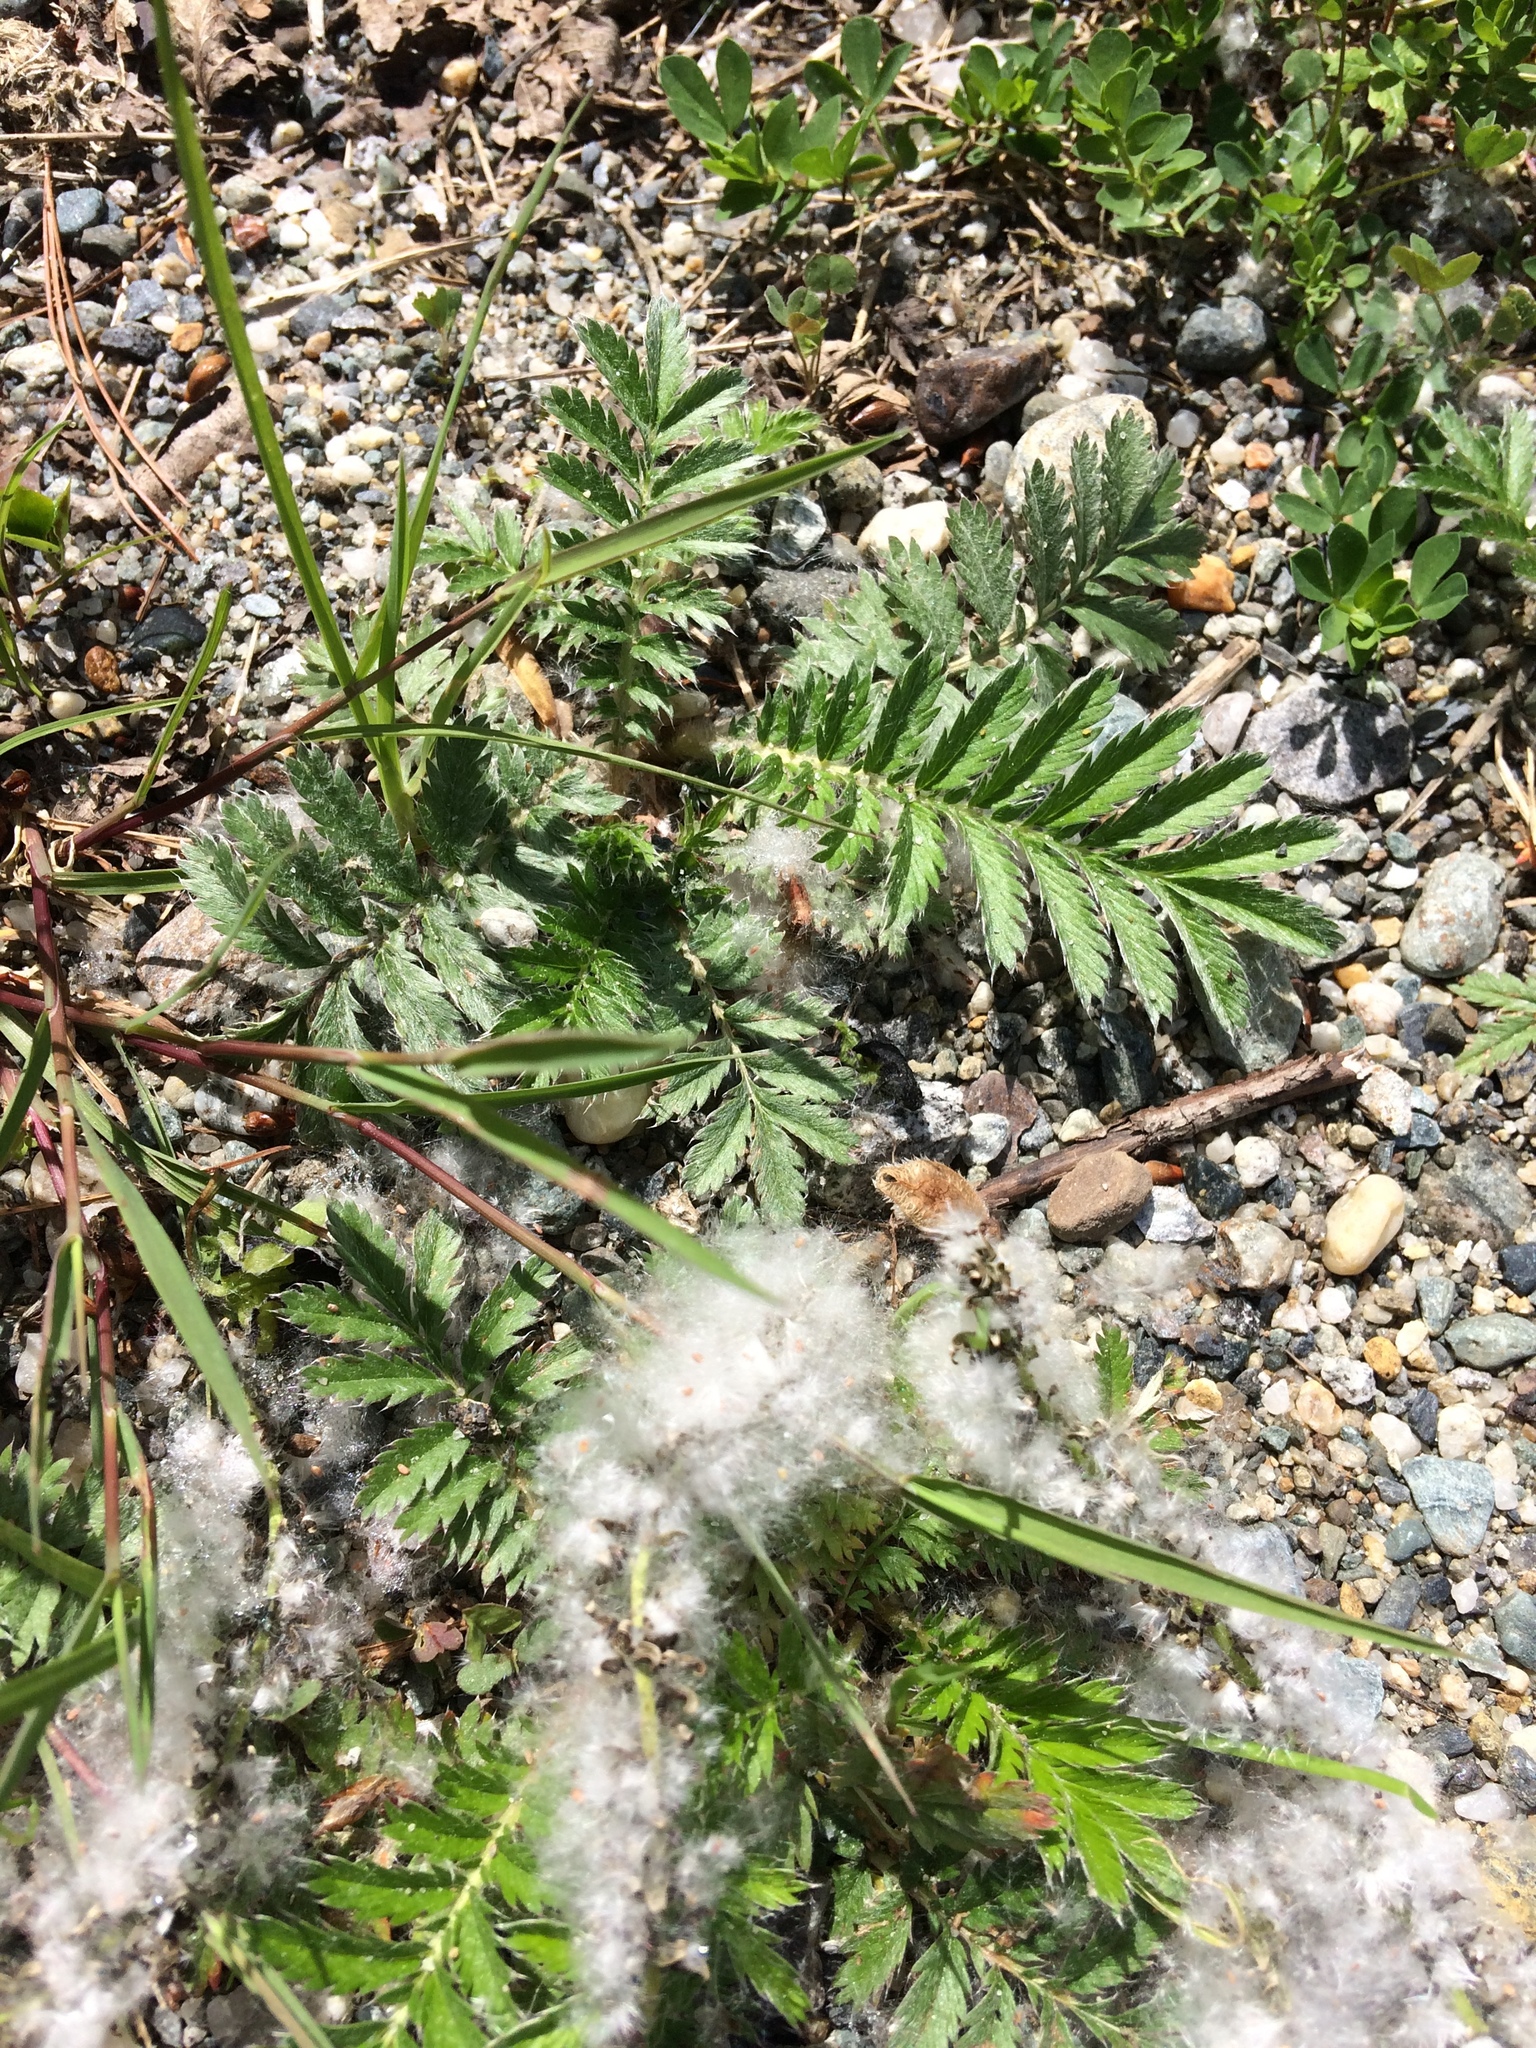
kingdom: Plantae
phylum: Tracheophyta
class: Magnoliopsida
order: Rosales
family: Rosaceae
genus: Argentina
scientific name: Argentina anserina
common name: Common silverweed
